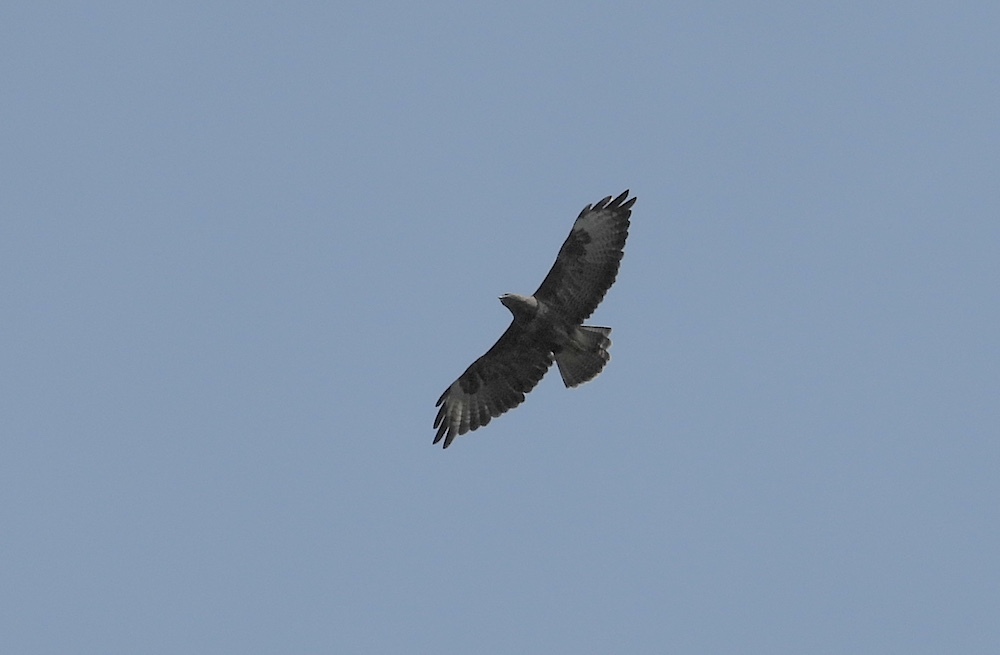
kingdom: Animalia
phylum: Chordata
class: Aves
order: Accipitriformes
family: Accipitridae
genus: Buteo
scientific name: Buteo buteo
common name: Common buzzard
